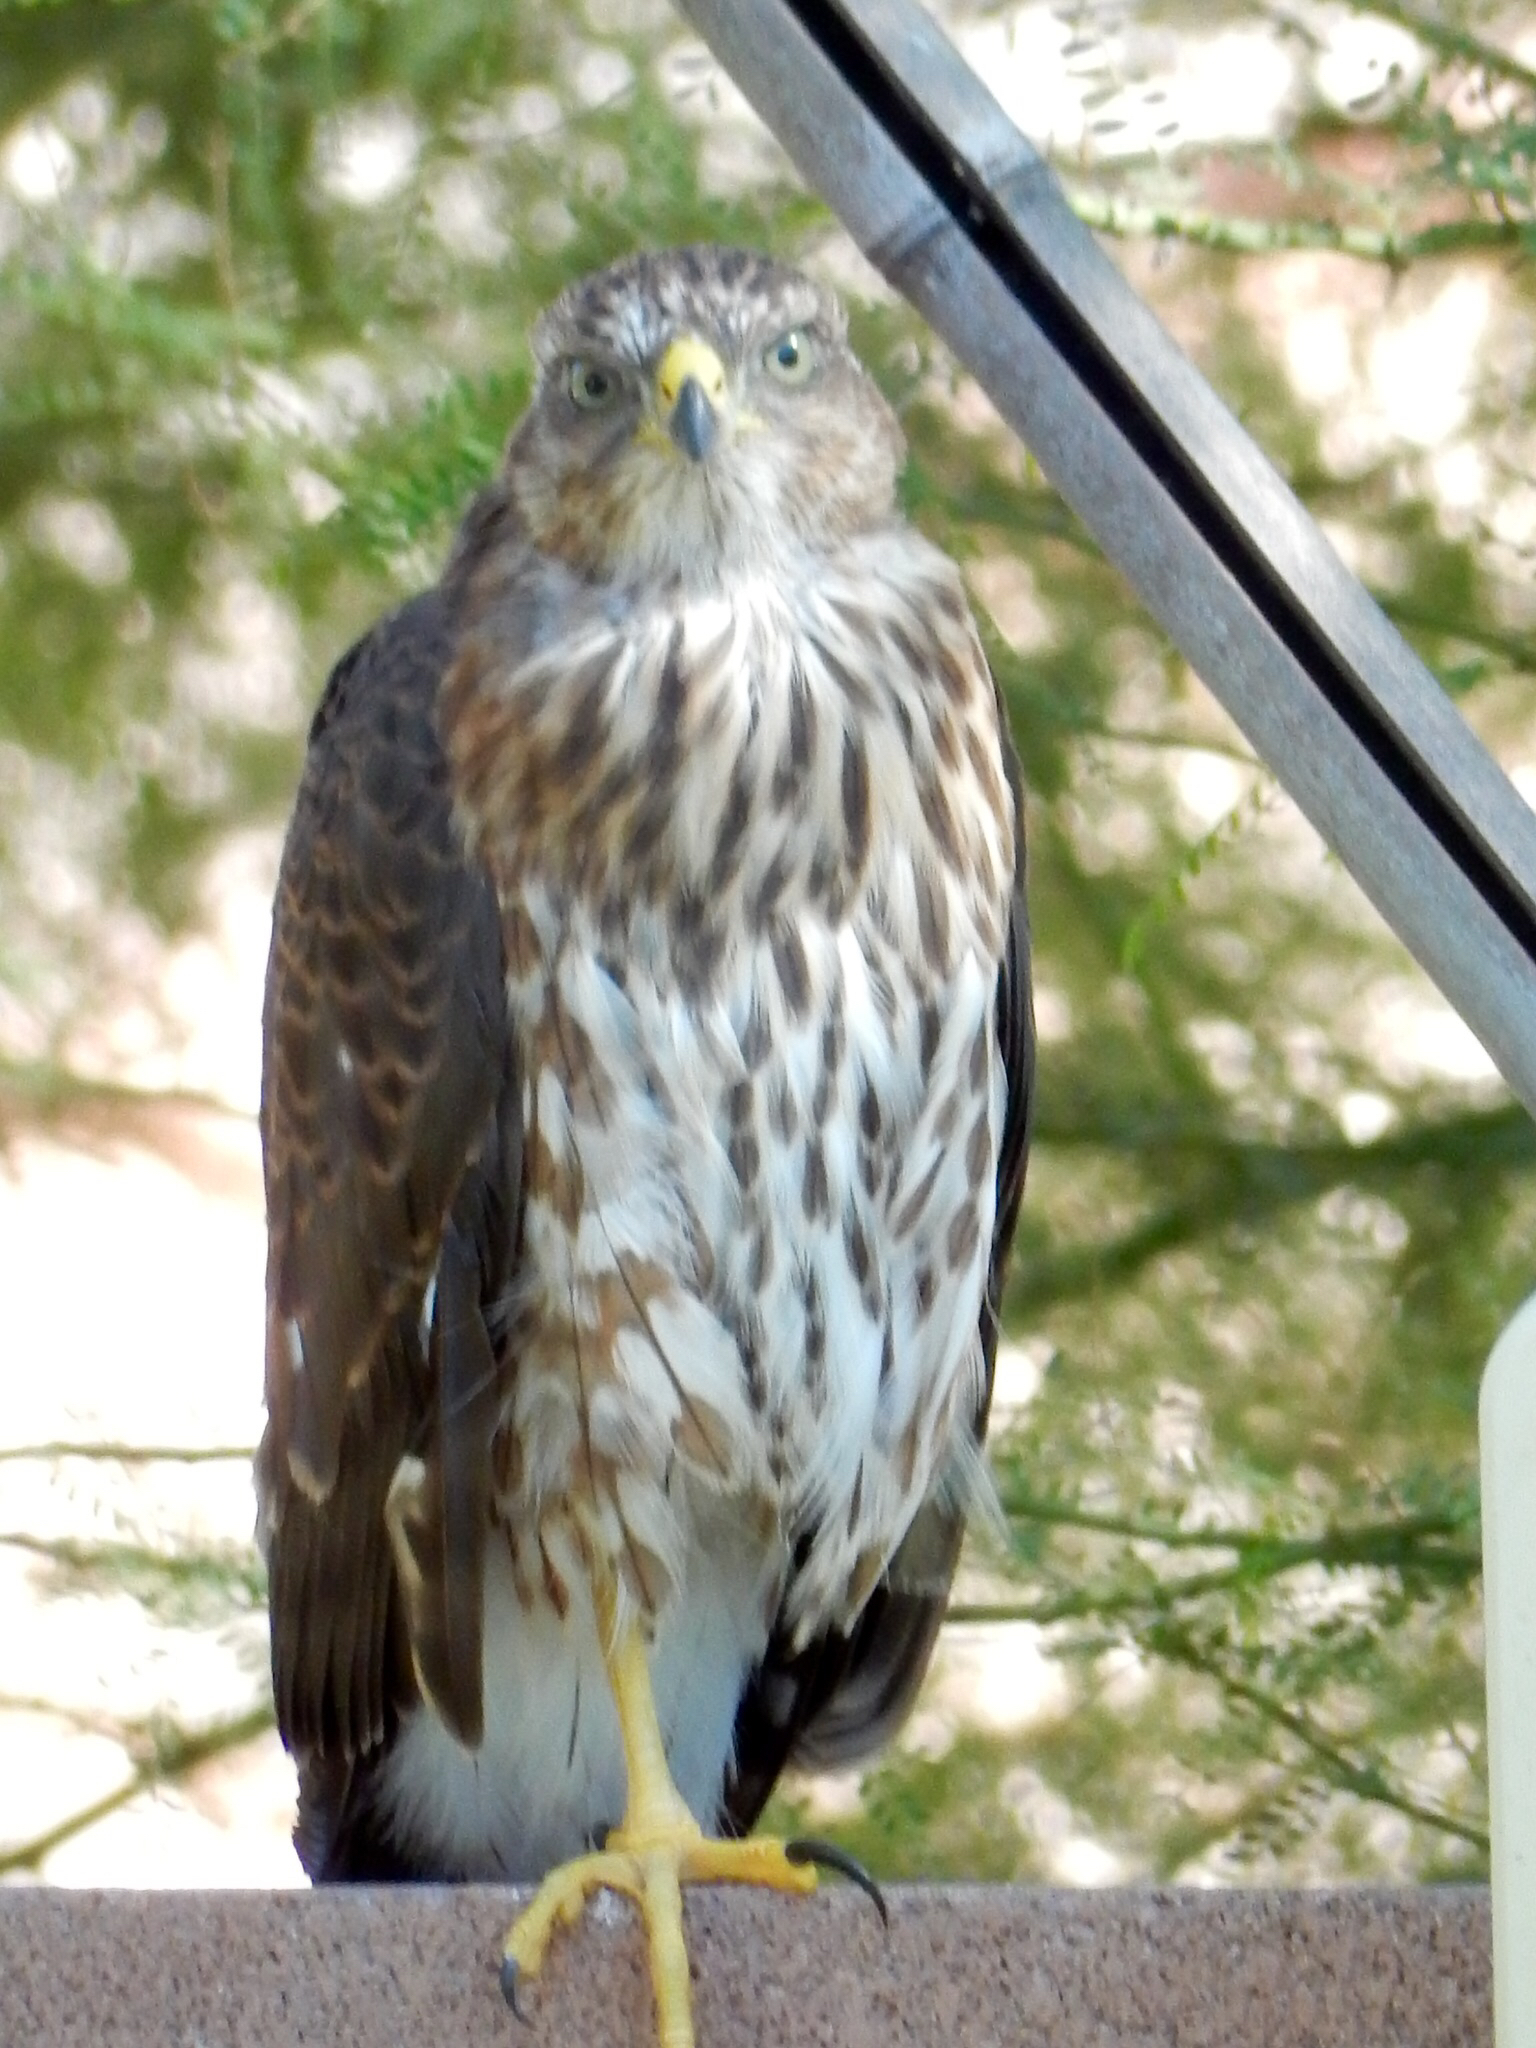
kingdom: Animalia
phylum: Chordata
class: Aves
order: Accipitriformes
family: Accipitridae
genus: Accipiter
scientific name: Accipiter cooperii
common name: Cooper's hawk
